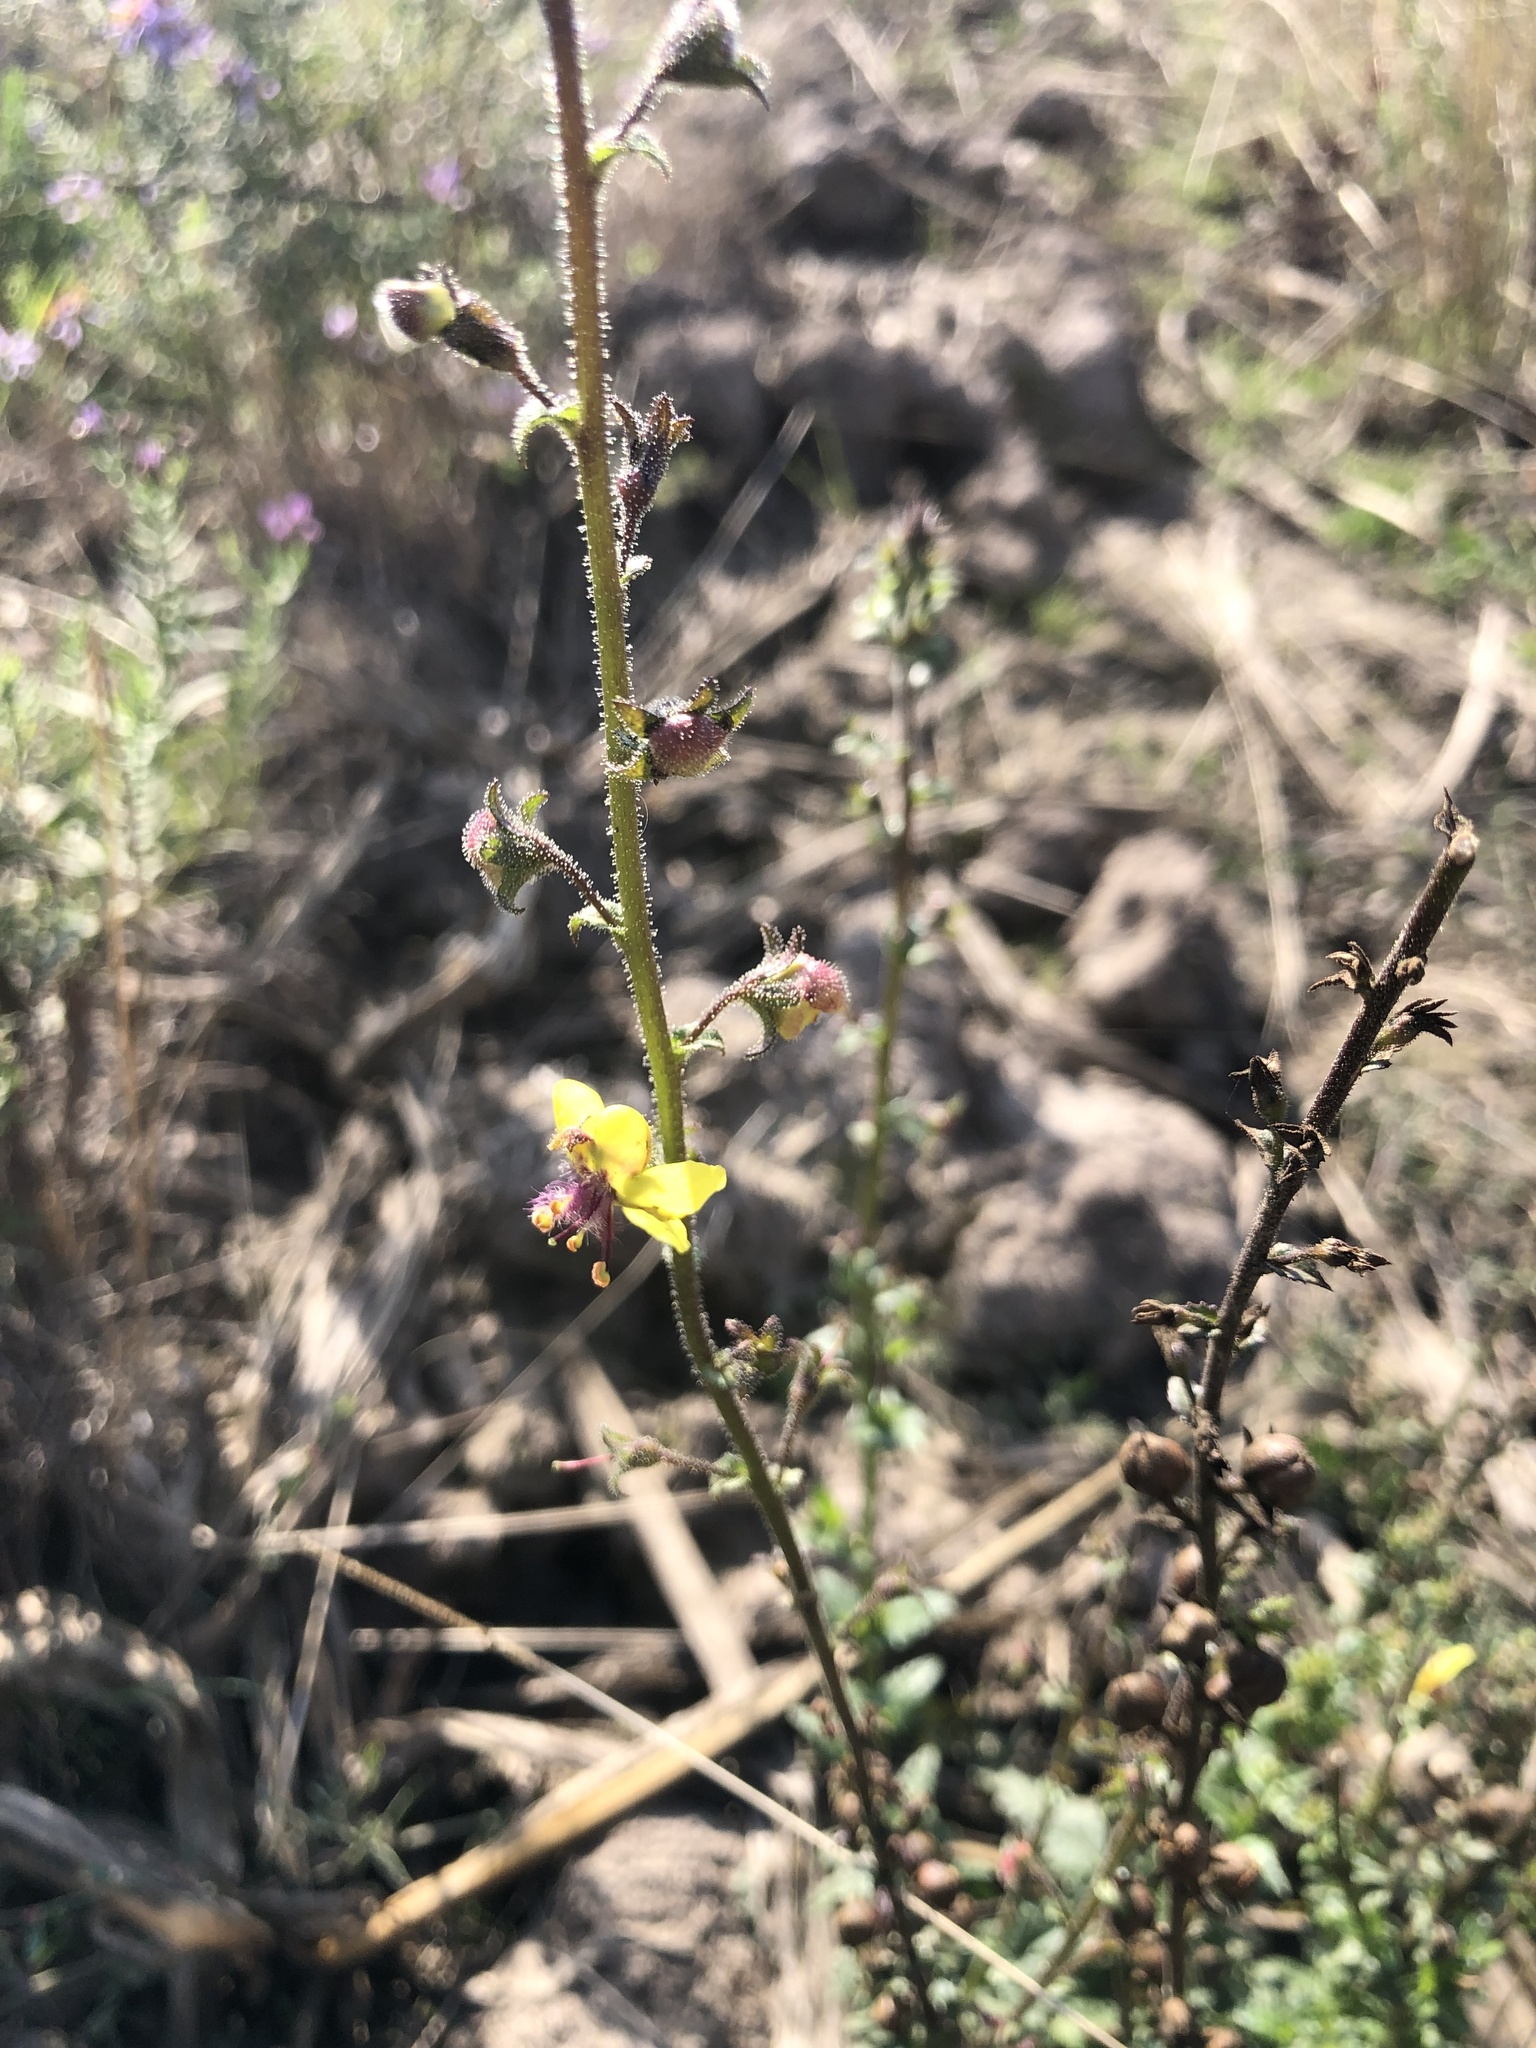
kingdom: Plantae
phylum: Tracheophyta
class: Magnoliopsida
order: Lamiales
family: Scrophulariaceae
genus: Verbascum
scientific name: Verbascum blattaria
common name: Moth mullein
